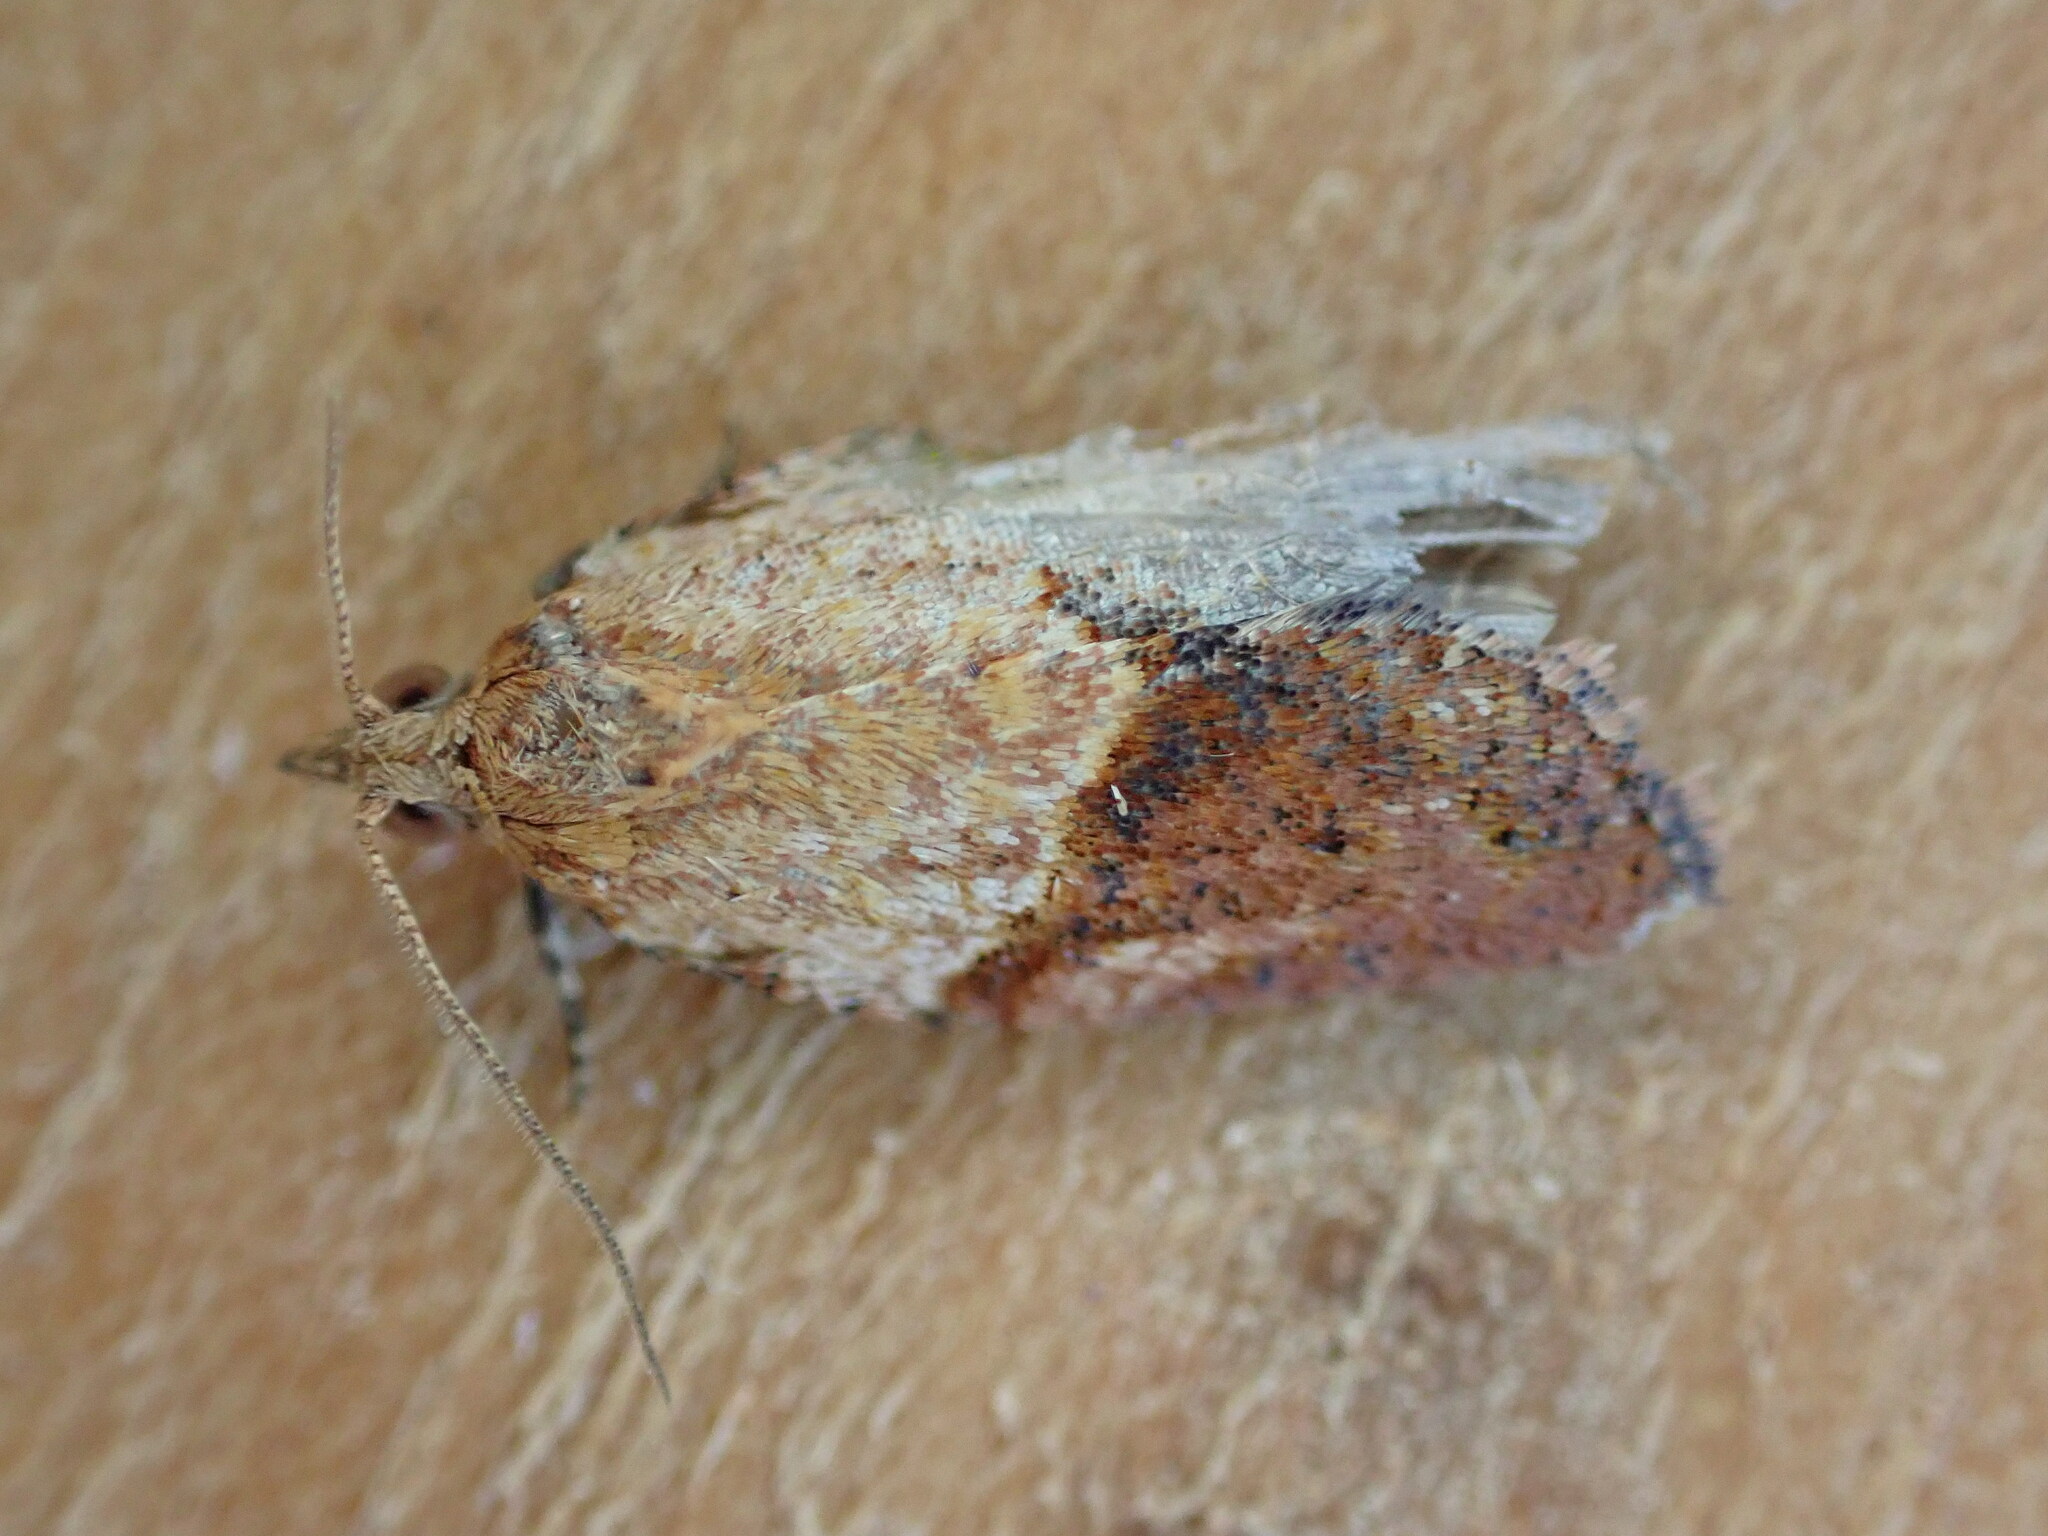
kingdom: Animalia
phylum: Arthropoda
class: Insecta
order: Lepidoptera
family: Tortricidae
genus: Epiphyas
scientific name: Epiphyas postvittana
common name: Light brown apple moth
